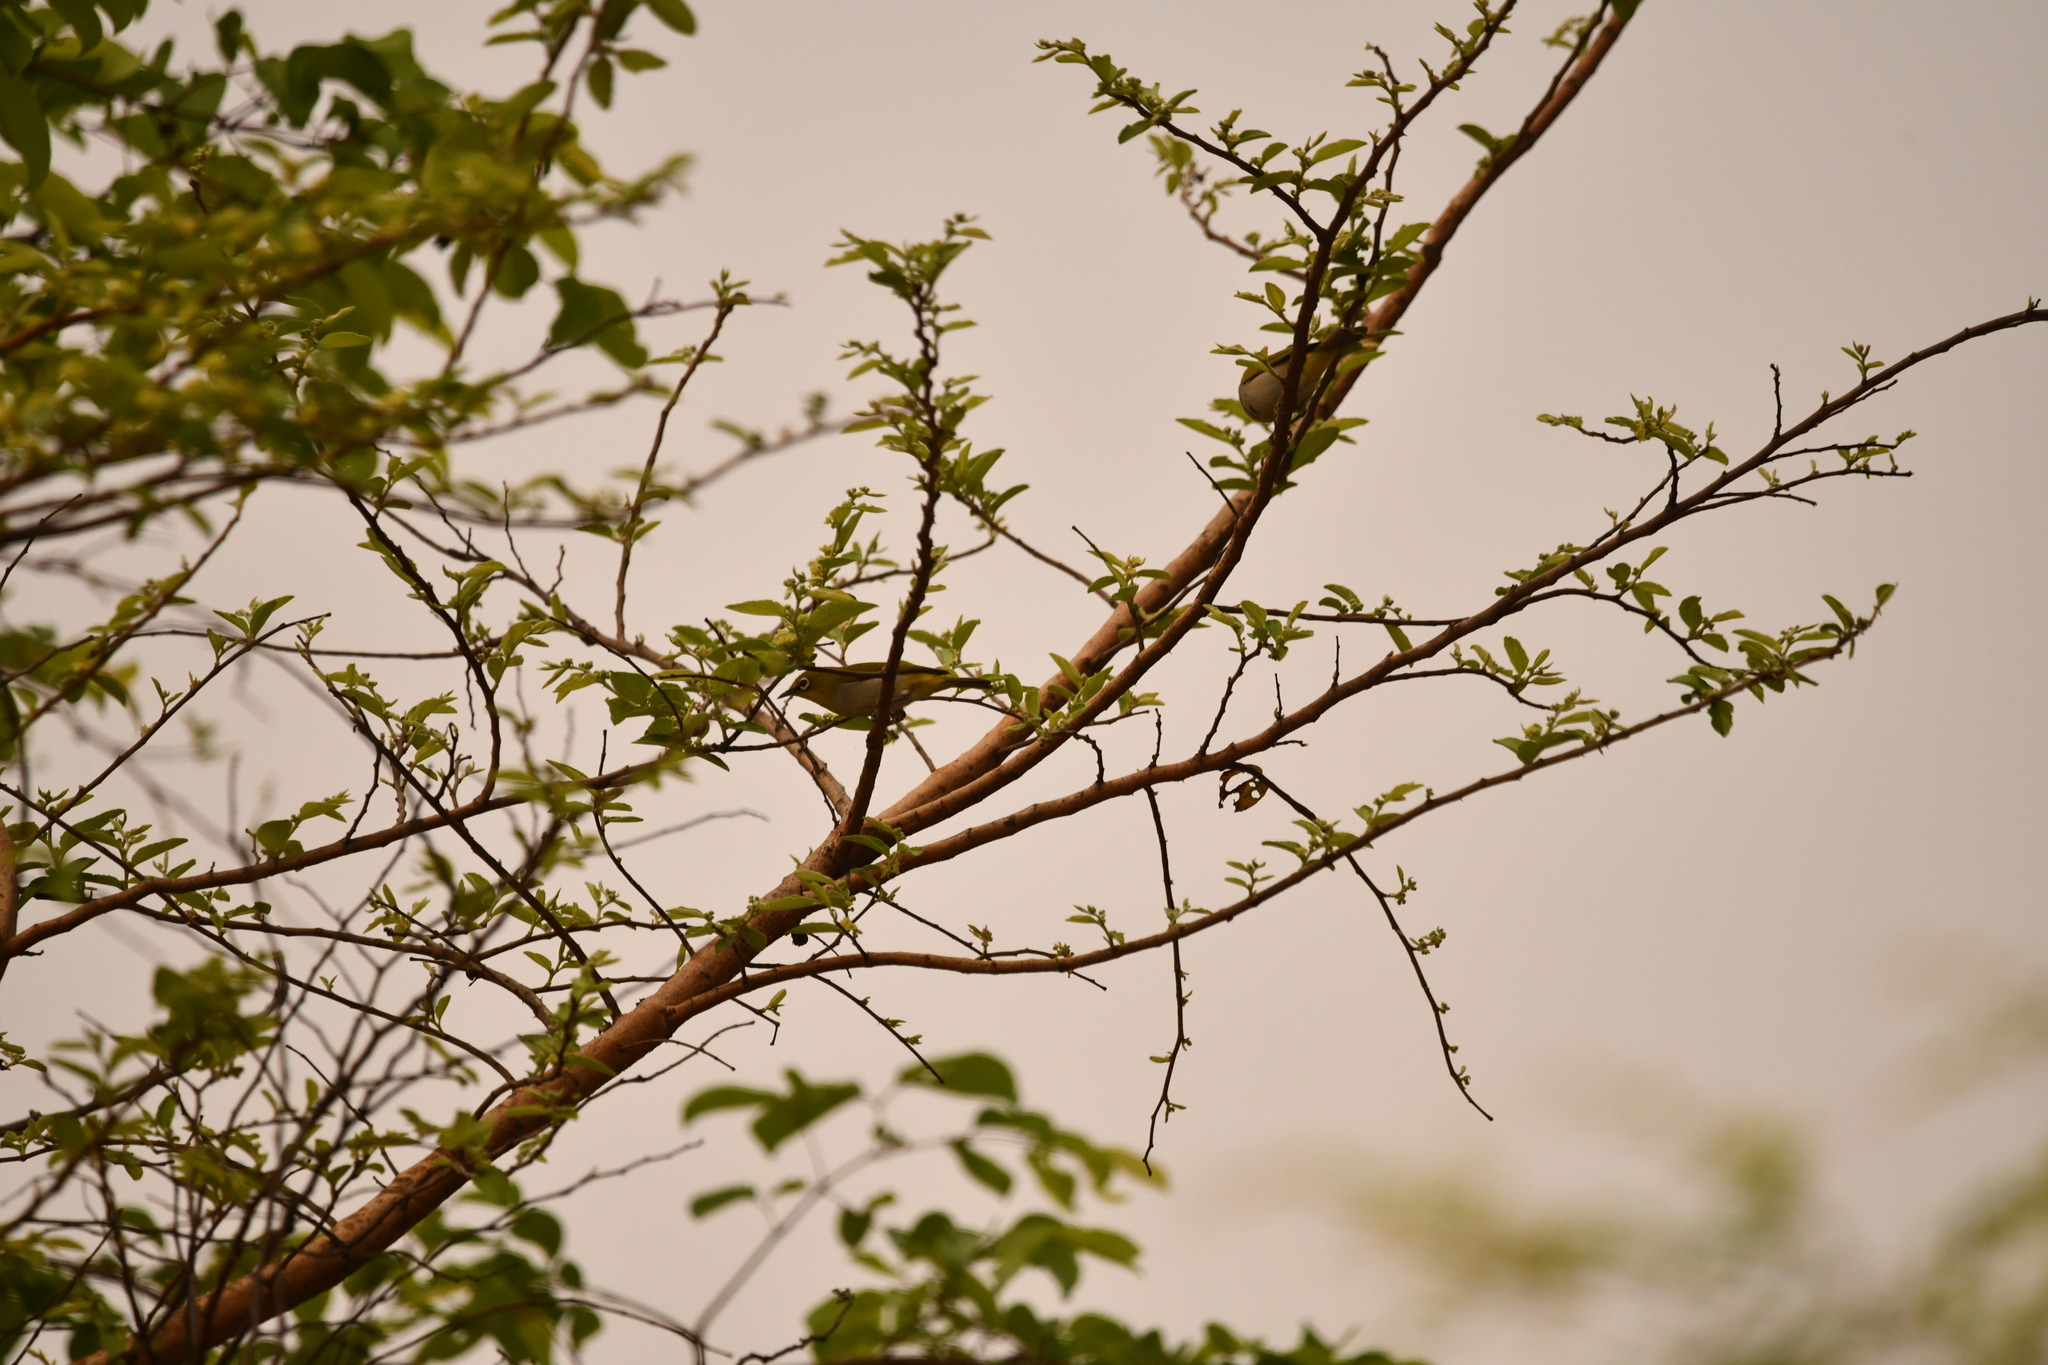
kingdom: Animalia
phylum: Chordata
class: Aves
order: Passeriformes
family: Zosteropidae
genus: Zosterops
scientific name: Zosterops palpebrosus
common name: Oriental white-eye
